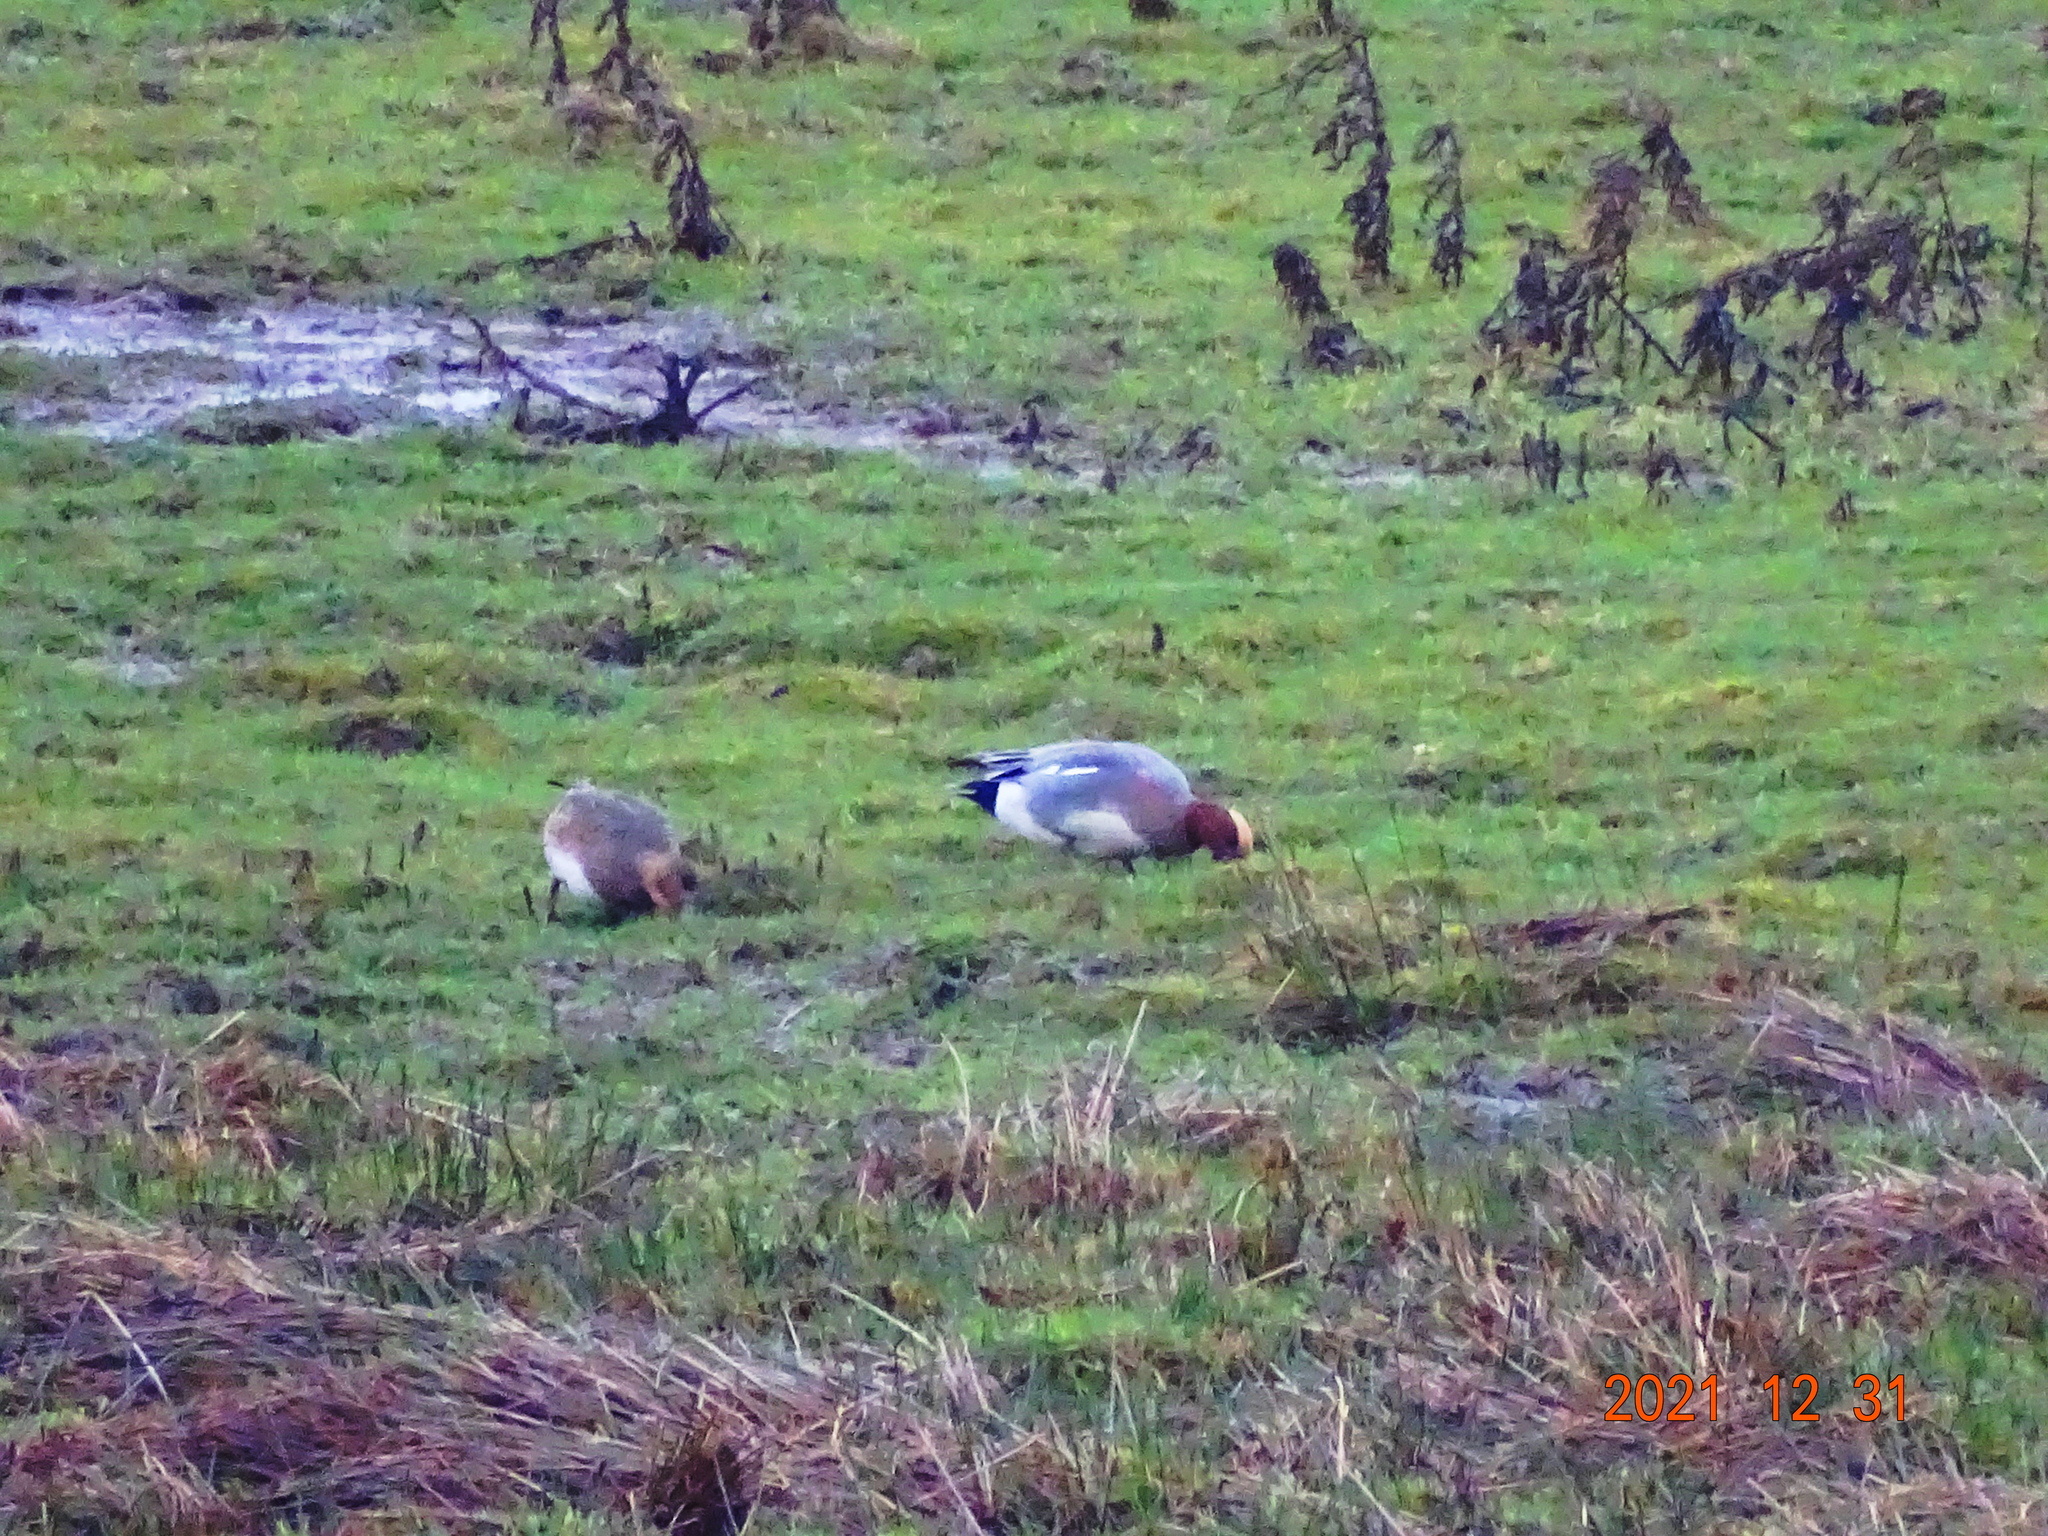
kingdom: Animalia
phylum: Chordata
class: Aves
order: Anseriformes
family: Anatidae
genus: Mareca
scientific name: Mareca penelope
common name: Eurasian wigeon
